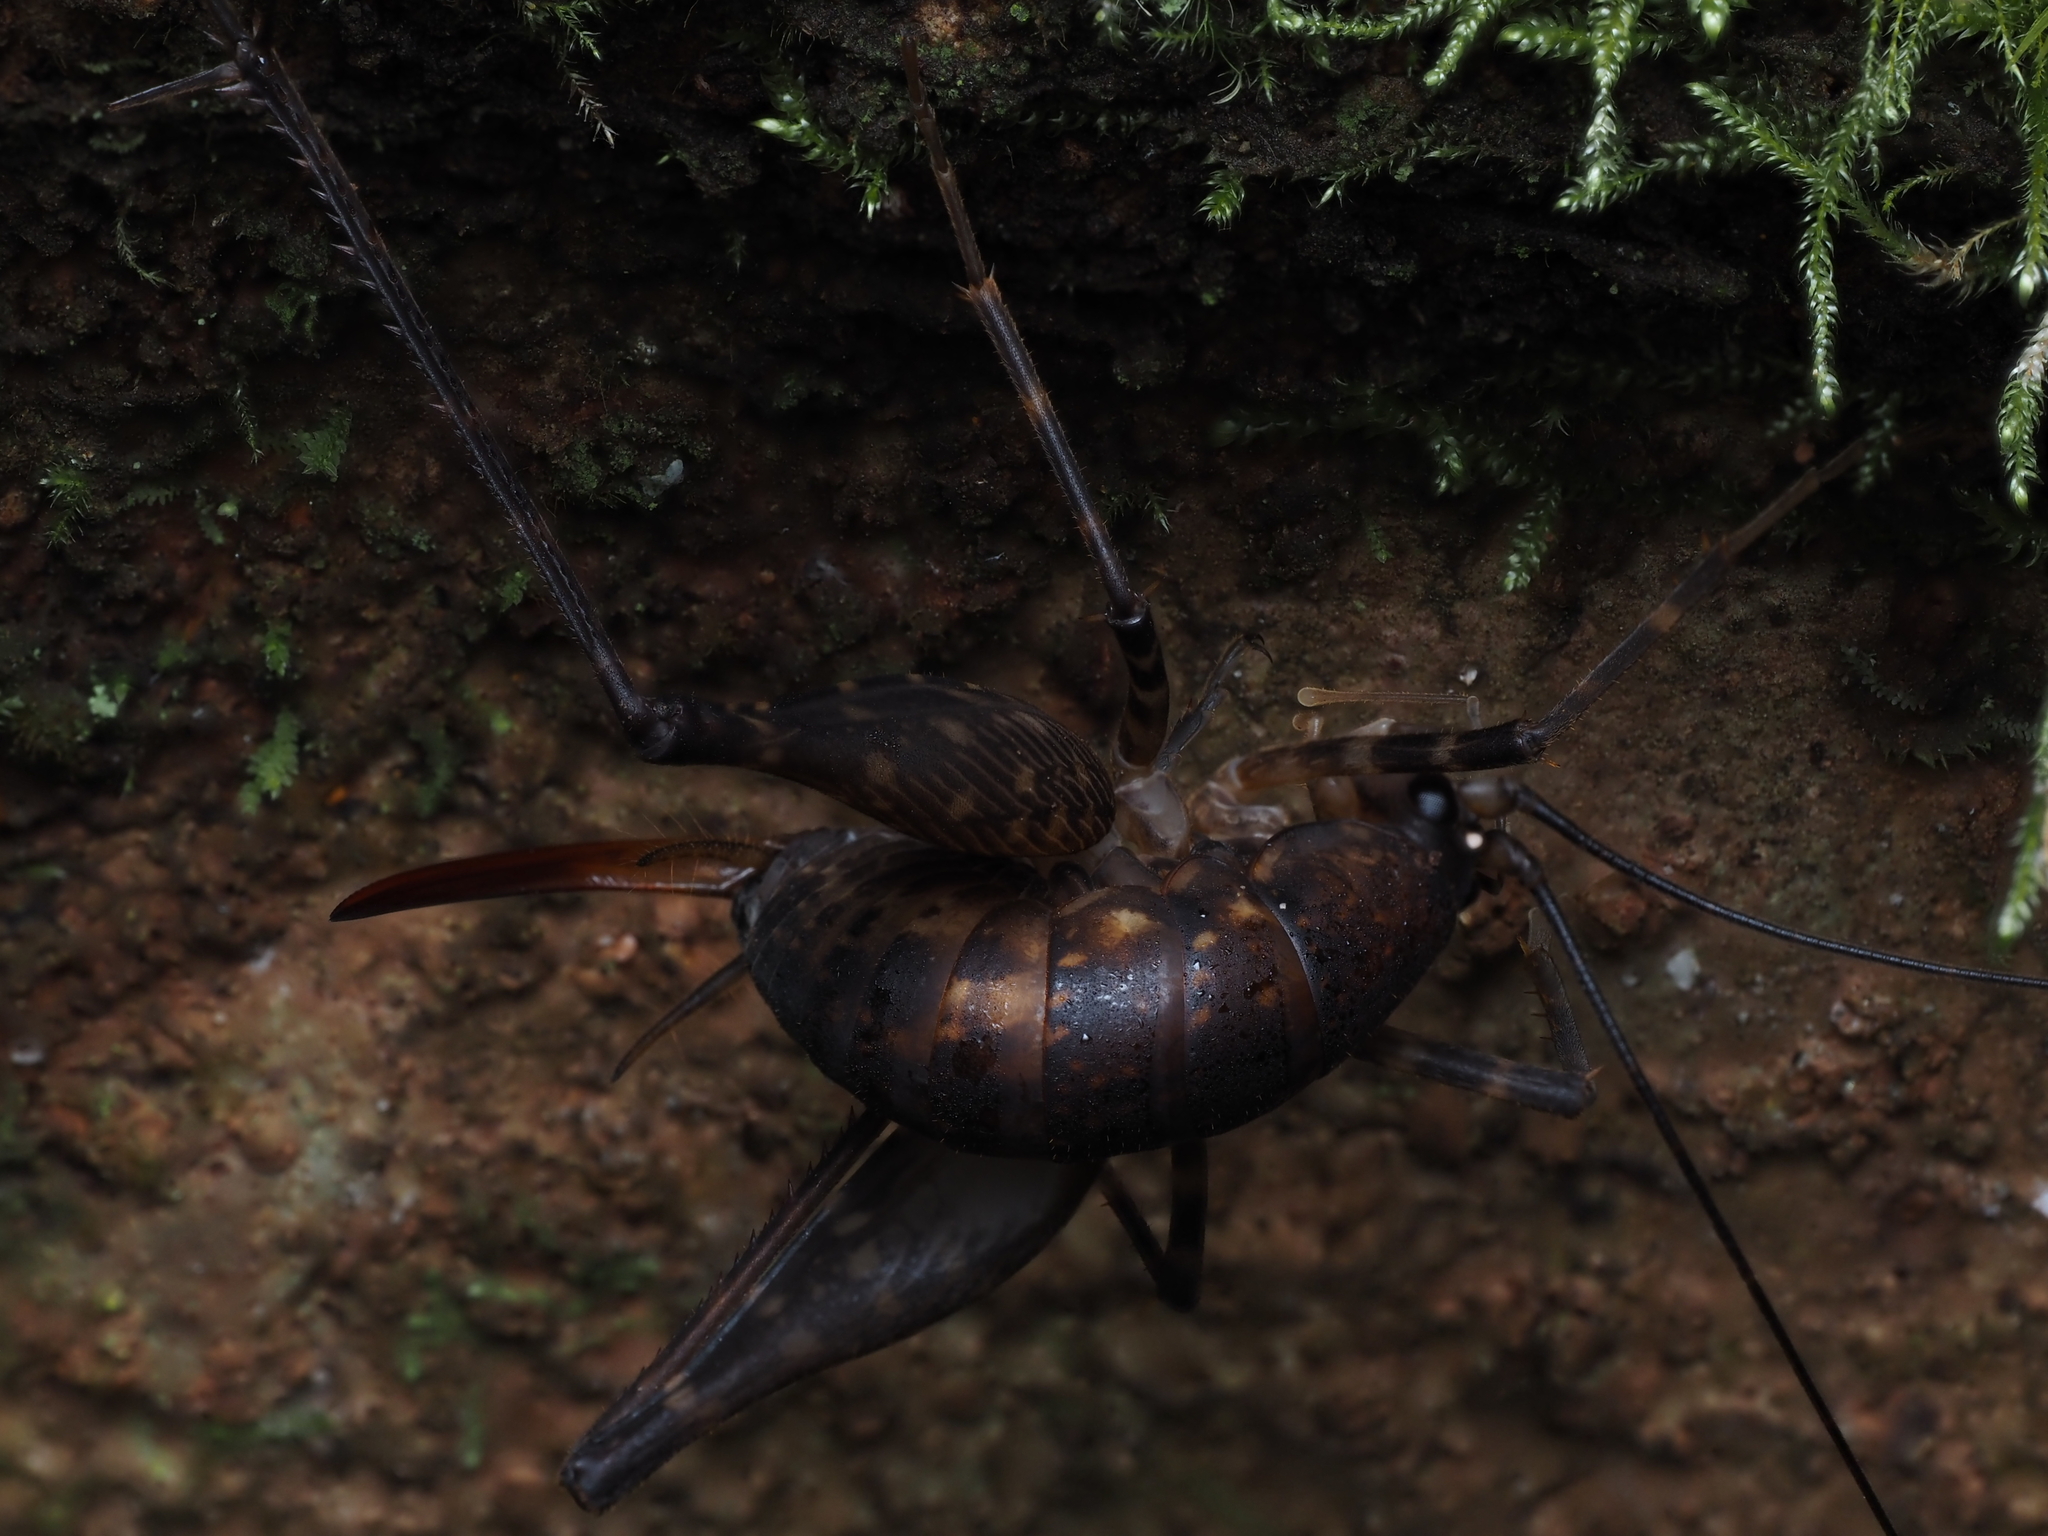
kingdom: Animalia
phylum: Arthropoda
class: Insecta
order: Orthoptera
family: Rhaphidophoridae
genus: Miotopus
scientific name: Miotopus diversus
